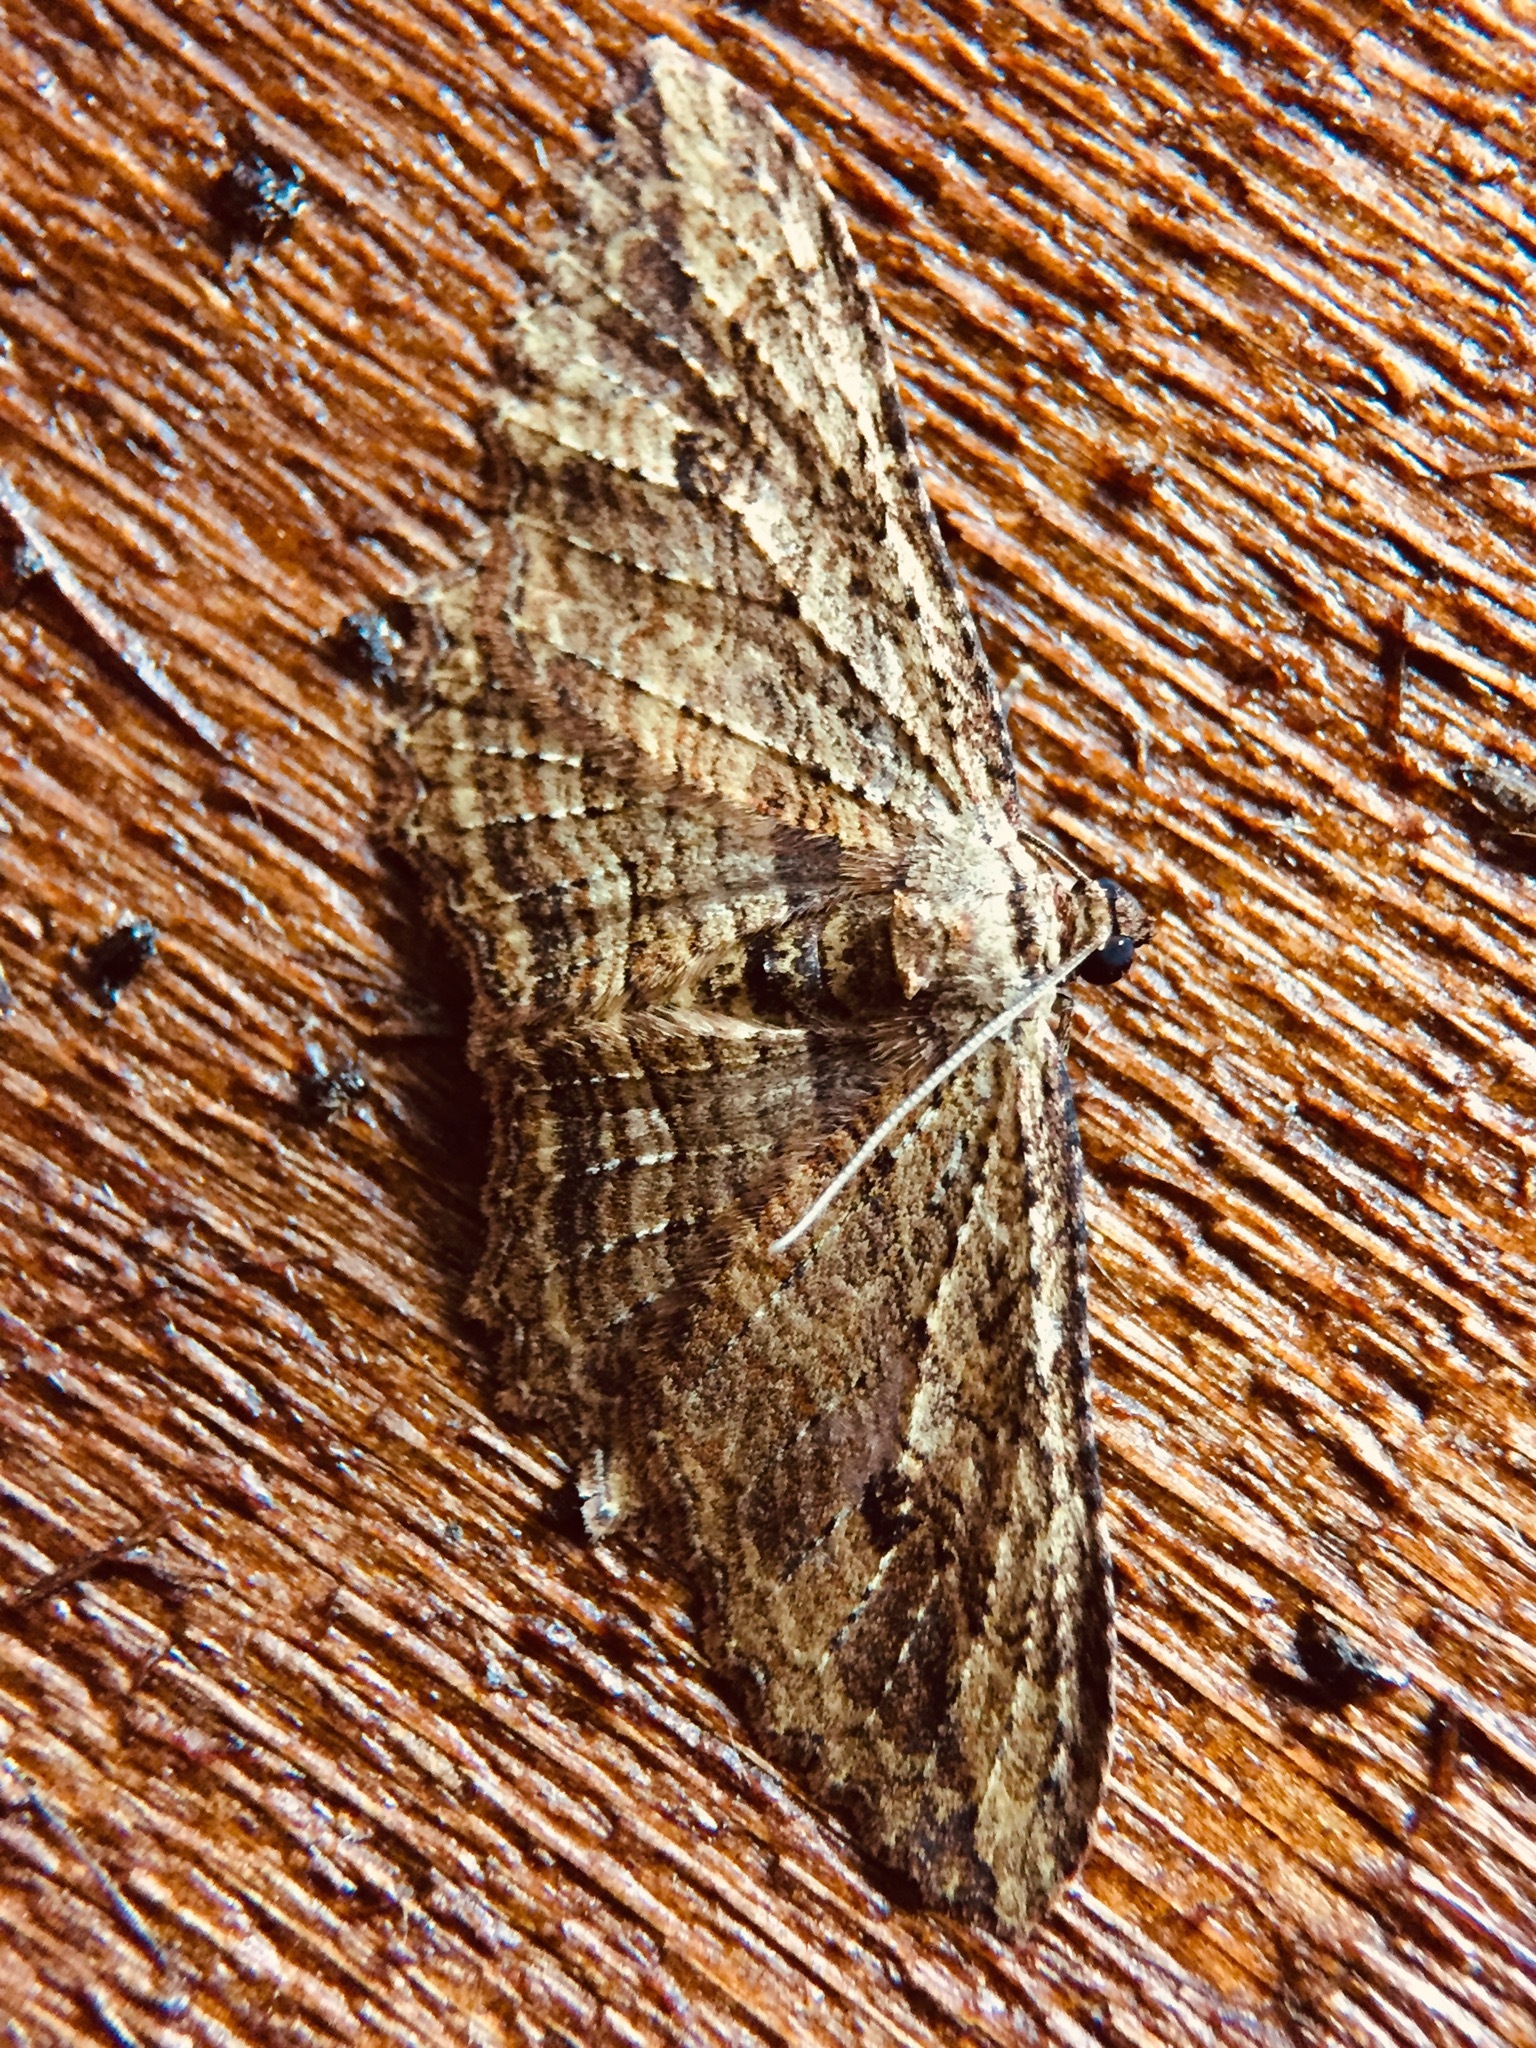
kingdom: Animalia
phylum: Arthropoda
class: Insecta
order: Lepidoptera
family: Geometridae
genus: Austrocidaria
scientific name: Austrocidaria bipartita
